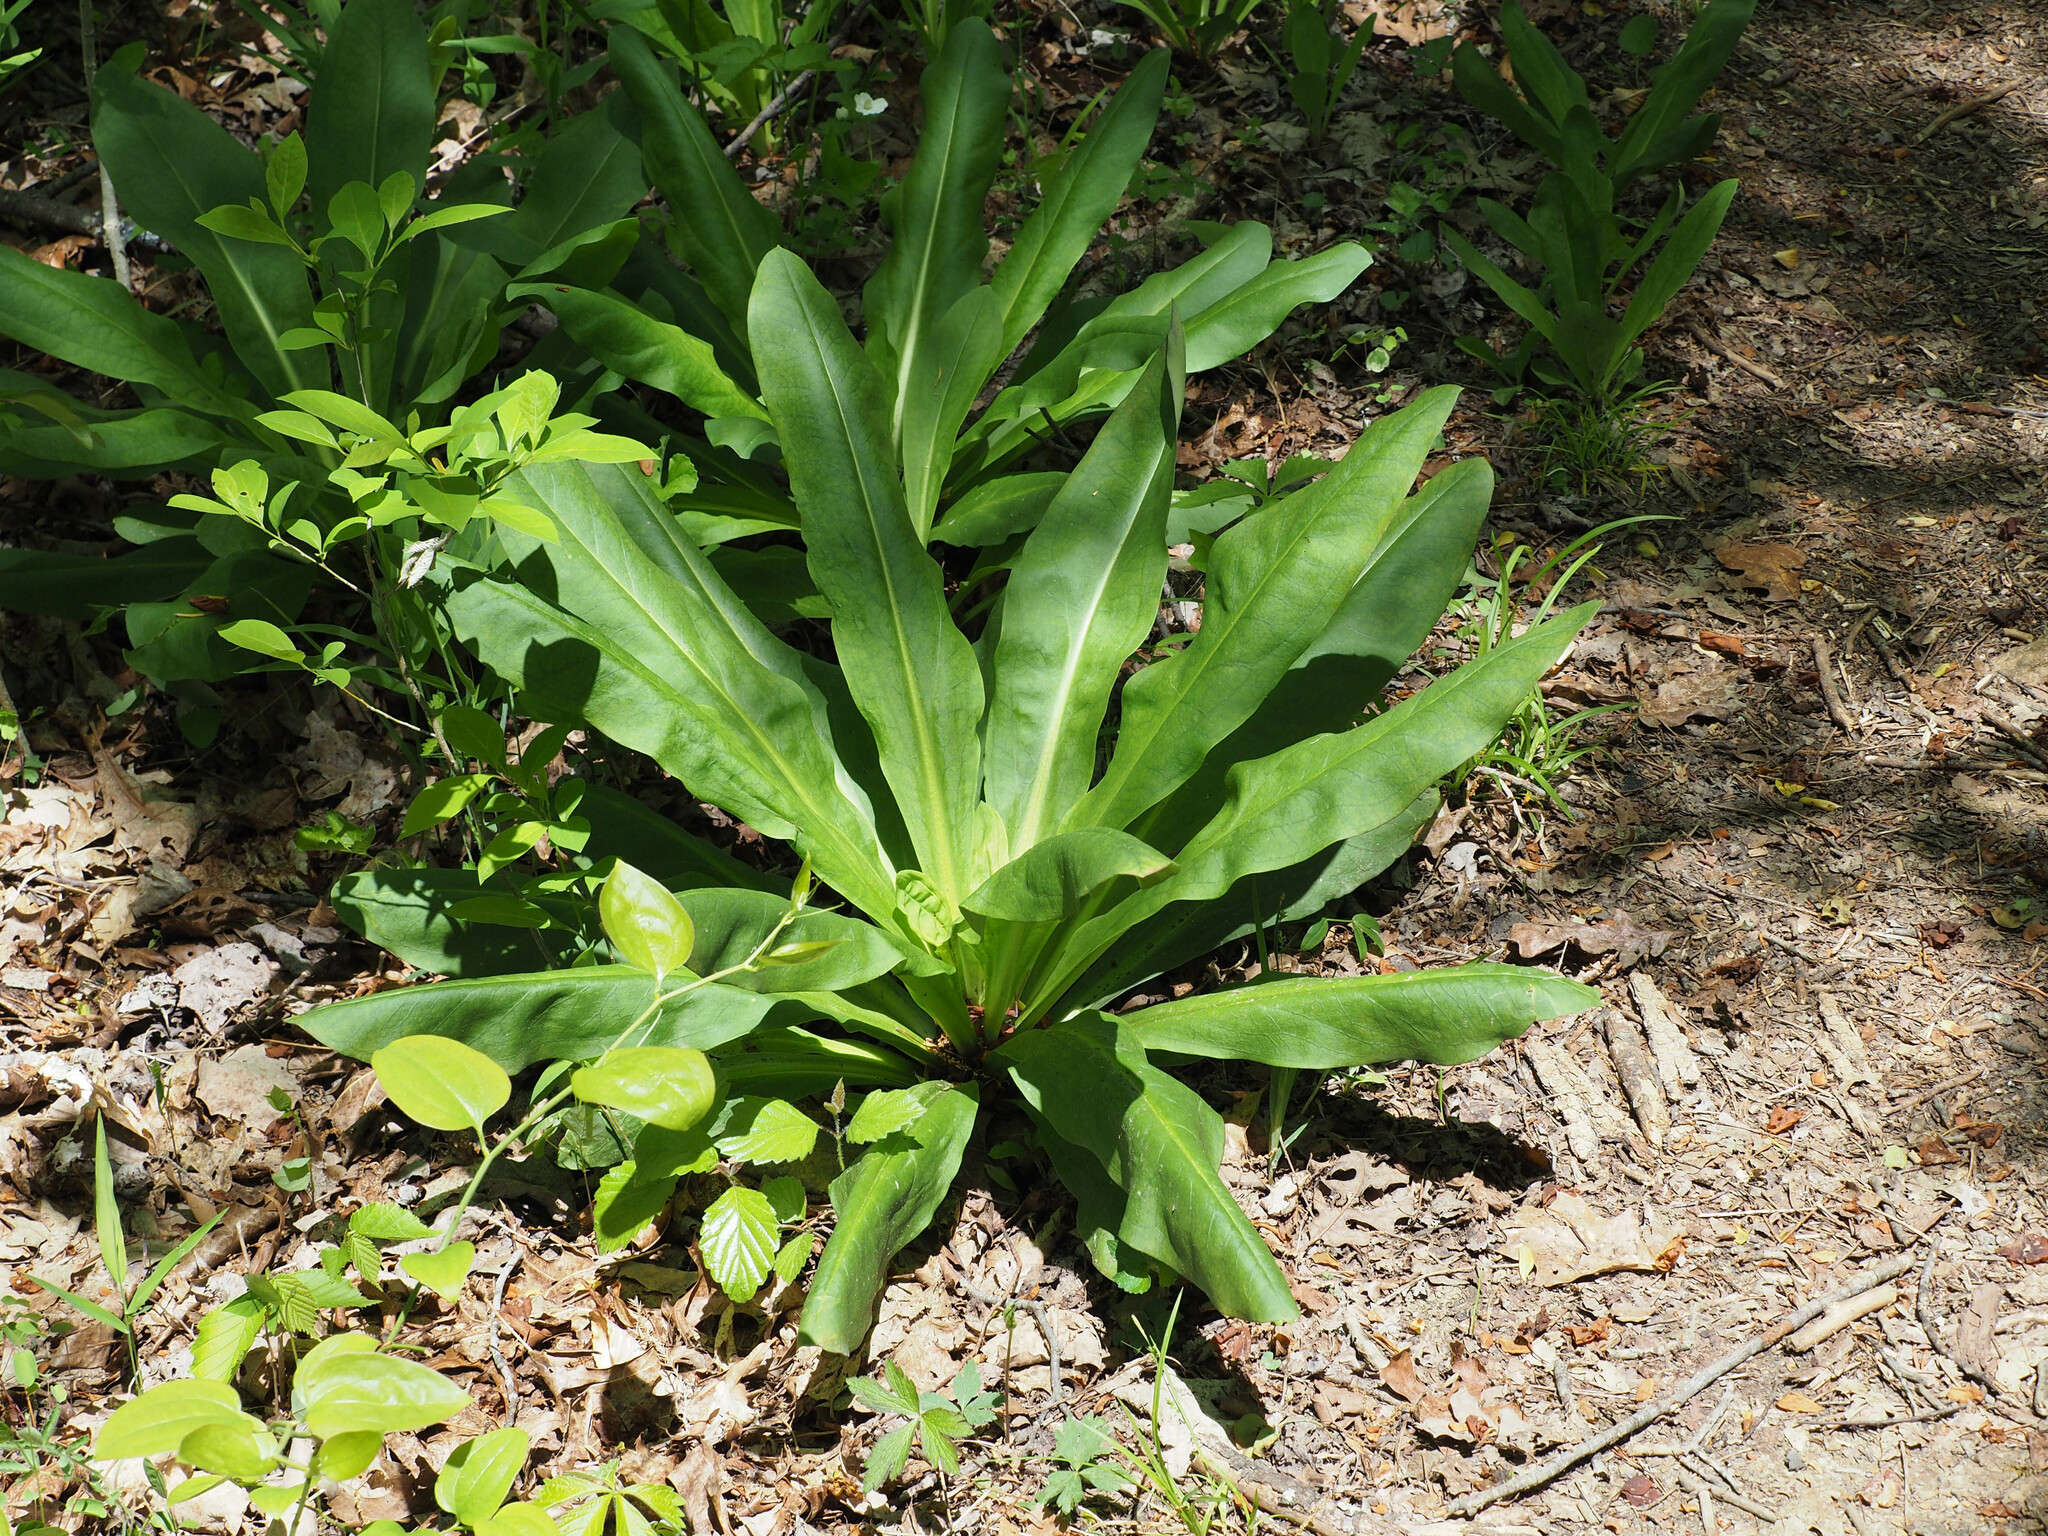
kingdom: Plantae
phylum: Tracheophyta
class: Magnoliopsida
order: Gentianales
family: Gentianaceae
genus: Frasera
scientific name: Frasera caroliniensis
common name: American columbo
